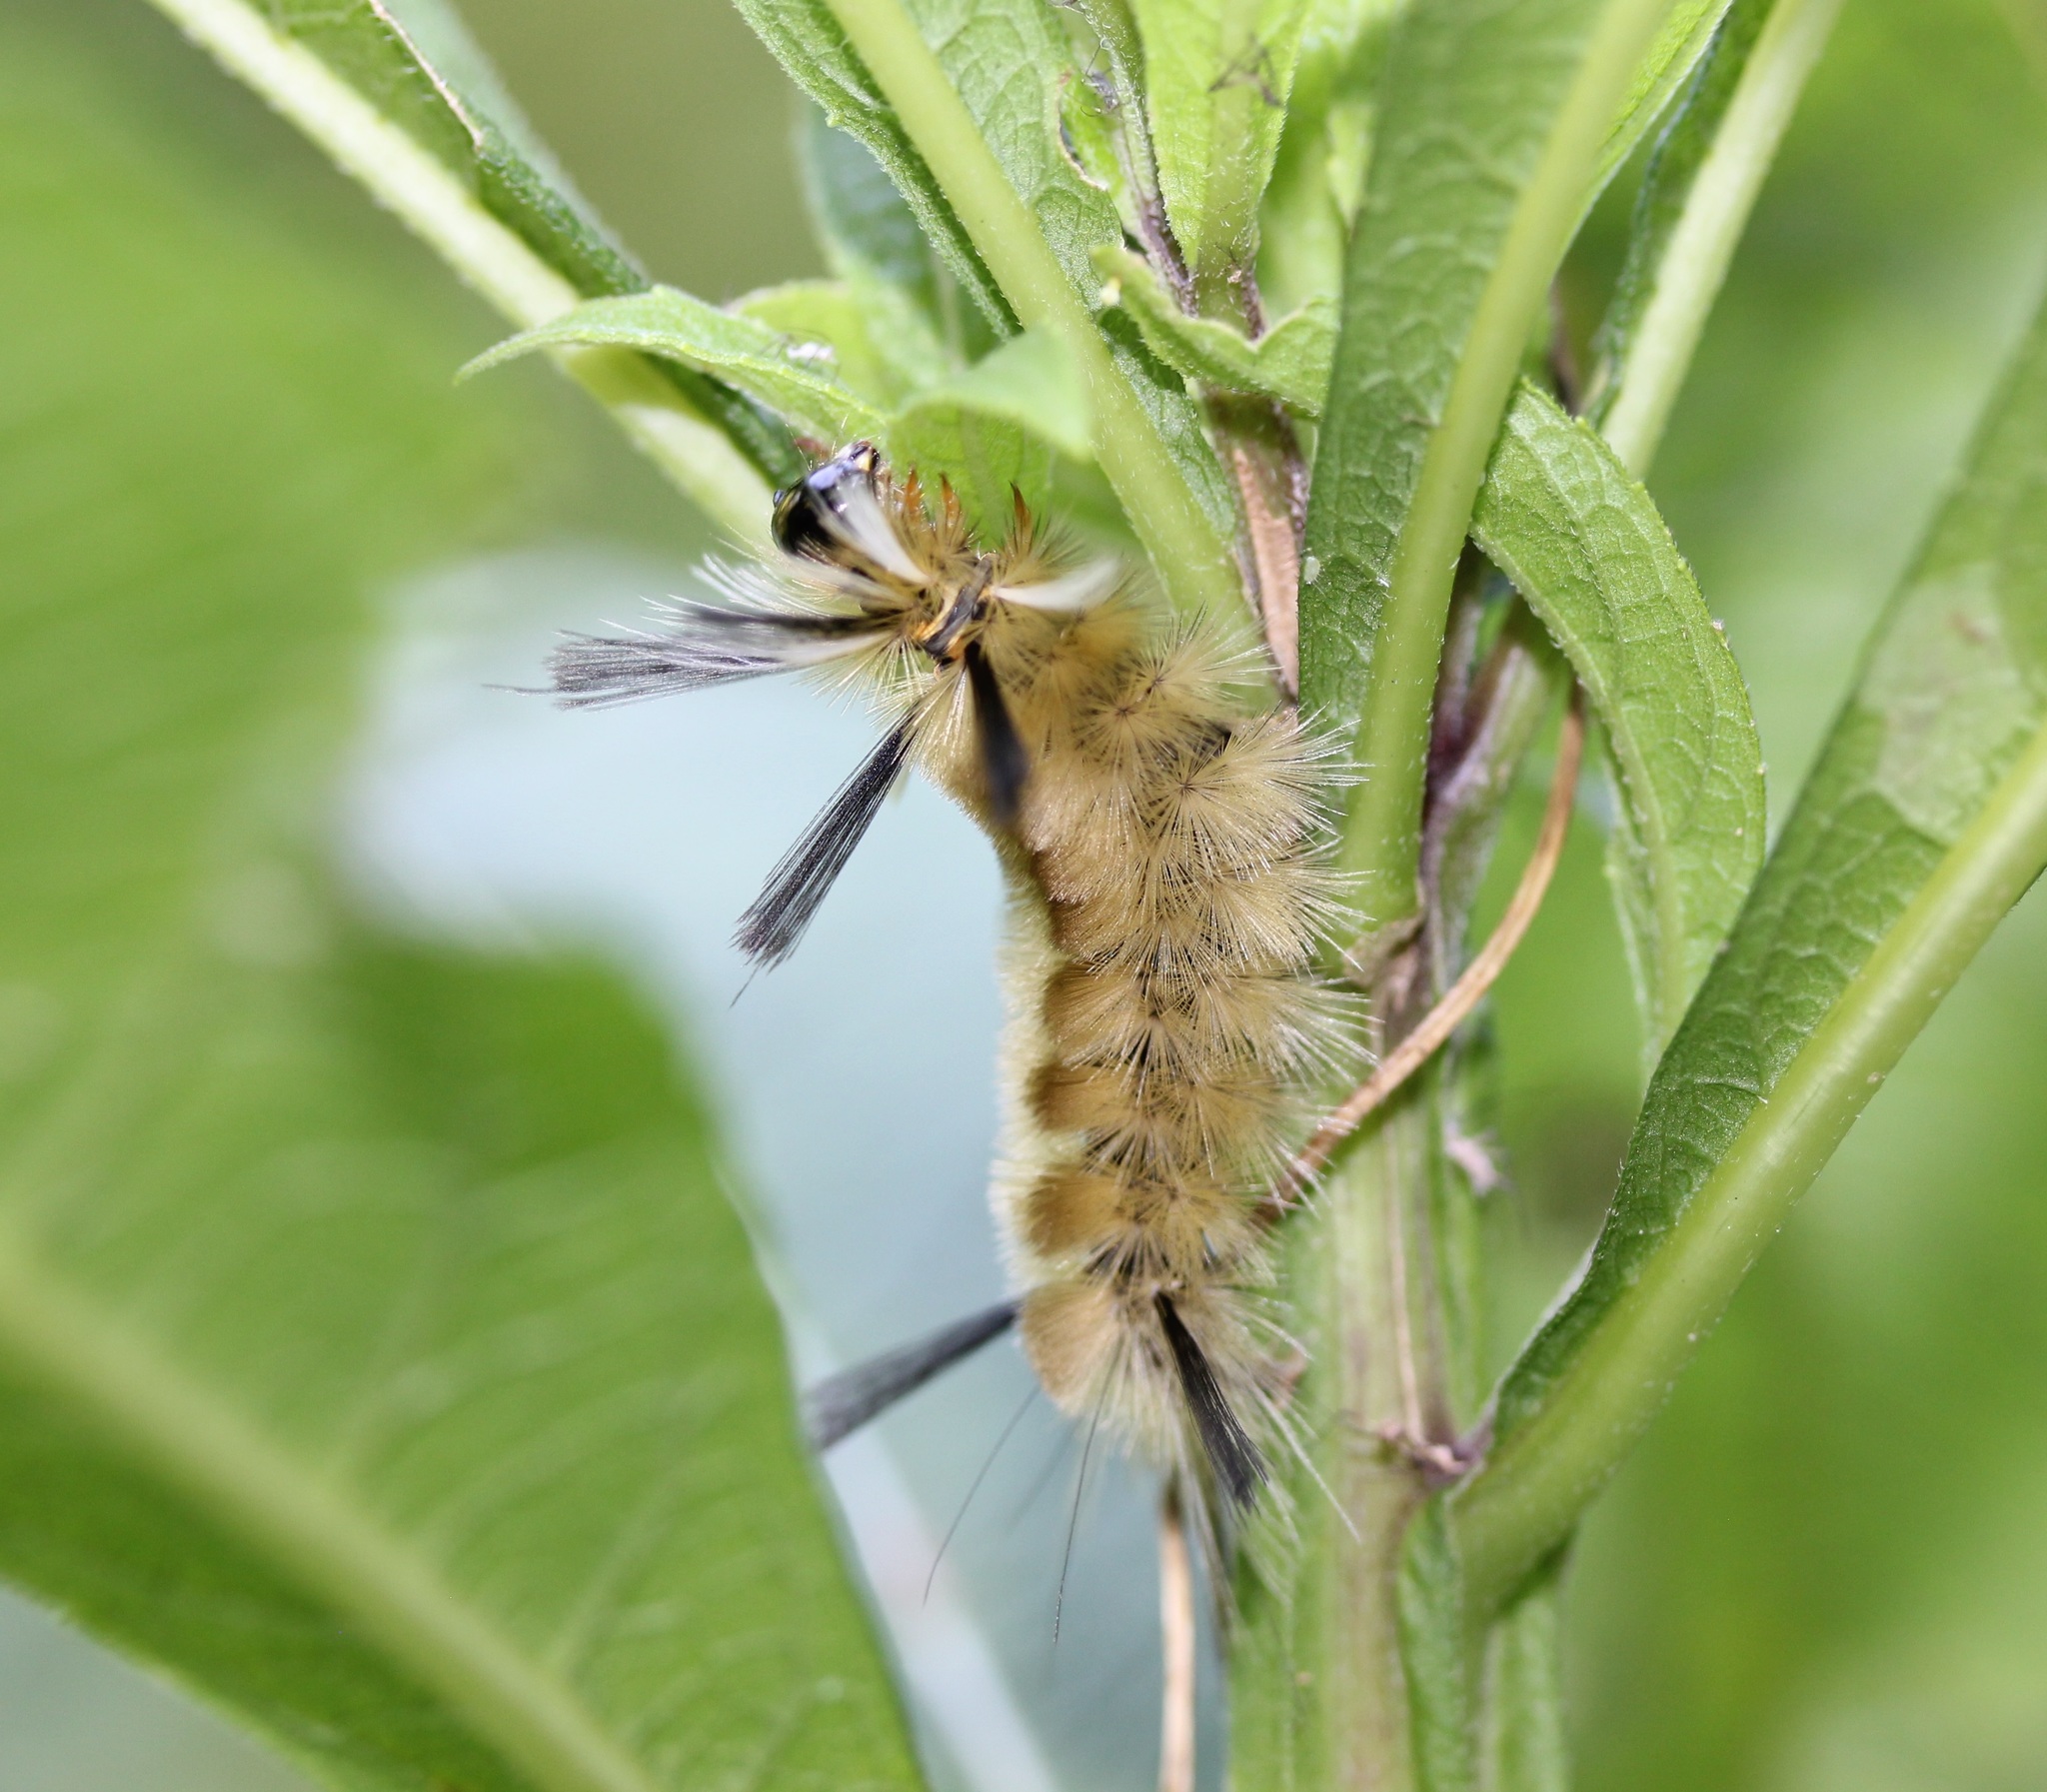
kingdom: Animalia
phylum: Arthropoda
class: Insecta
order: Lepidoptera
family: Erebidae
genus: Halysidota
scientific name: Halysidota tessellaris
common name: Banded tussock moth
